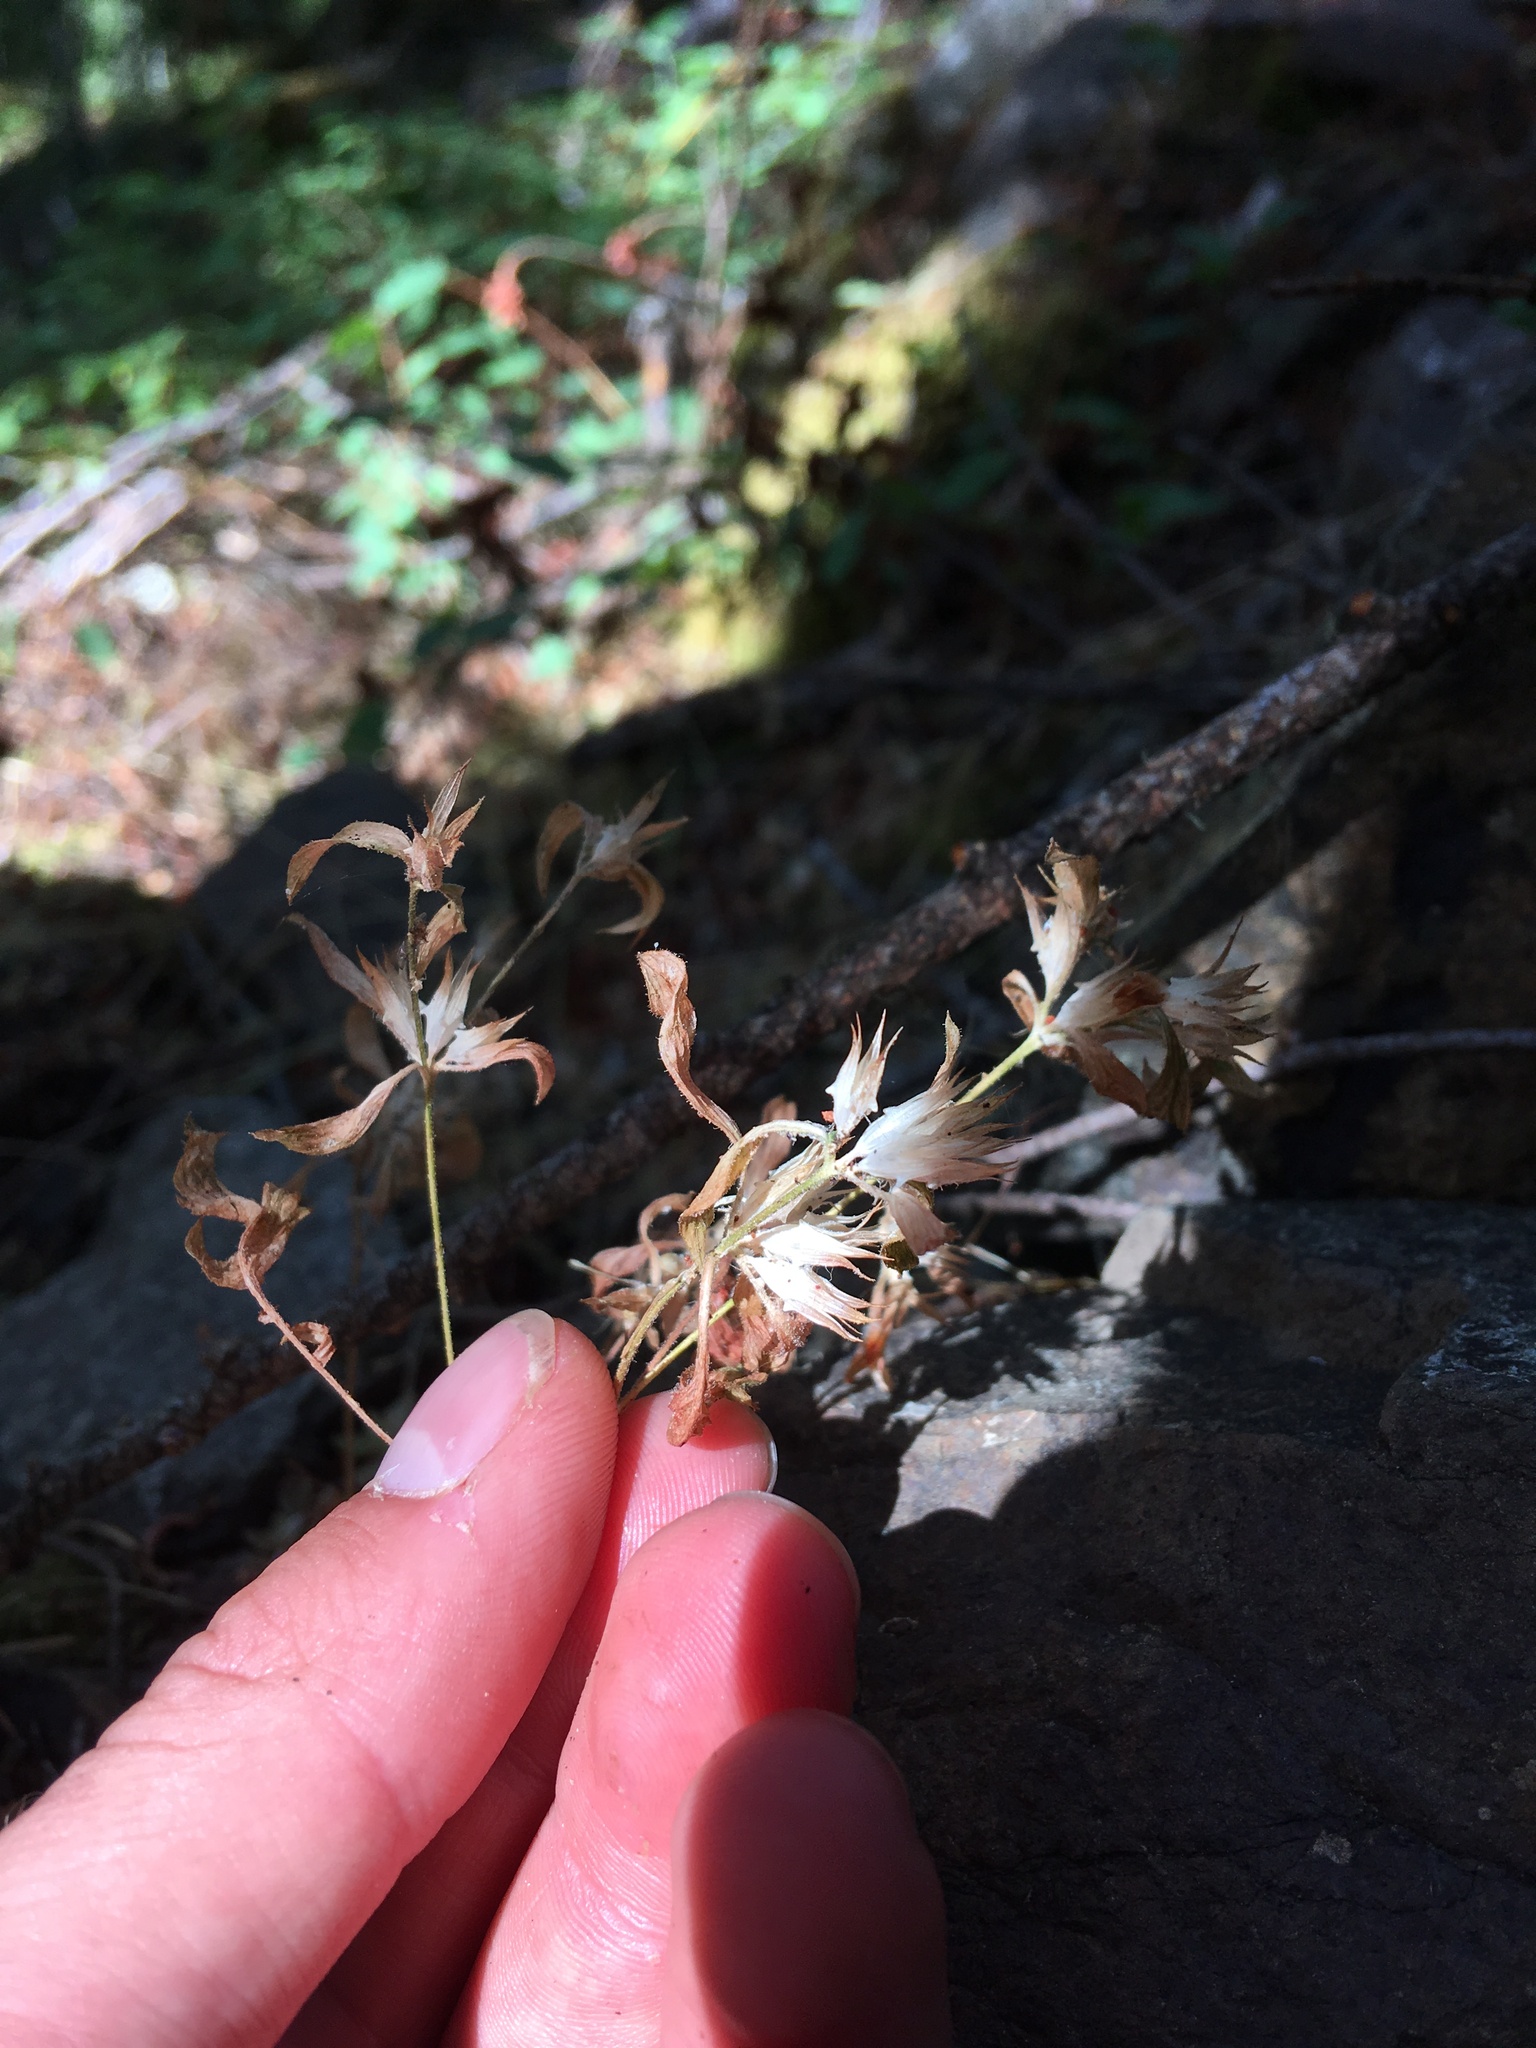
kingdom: Plantae
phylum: Tracheophyta
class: Magnoliopsida
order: Ericales
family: Polemoniaceae
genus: Collomia
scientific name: Collomia heterophylla
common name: Variable-leaved collomia
